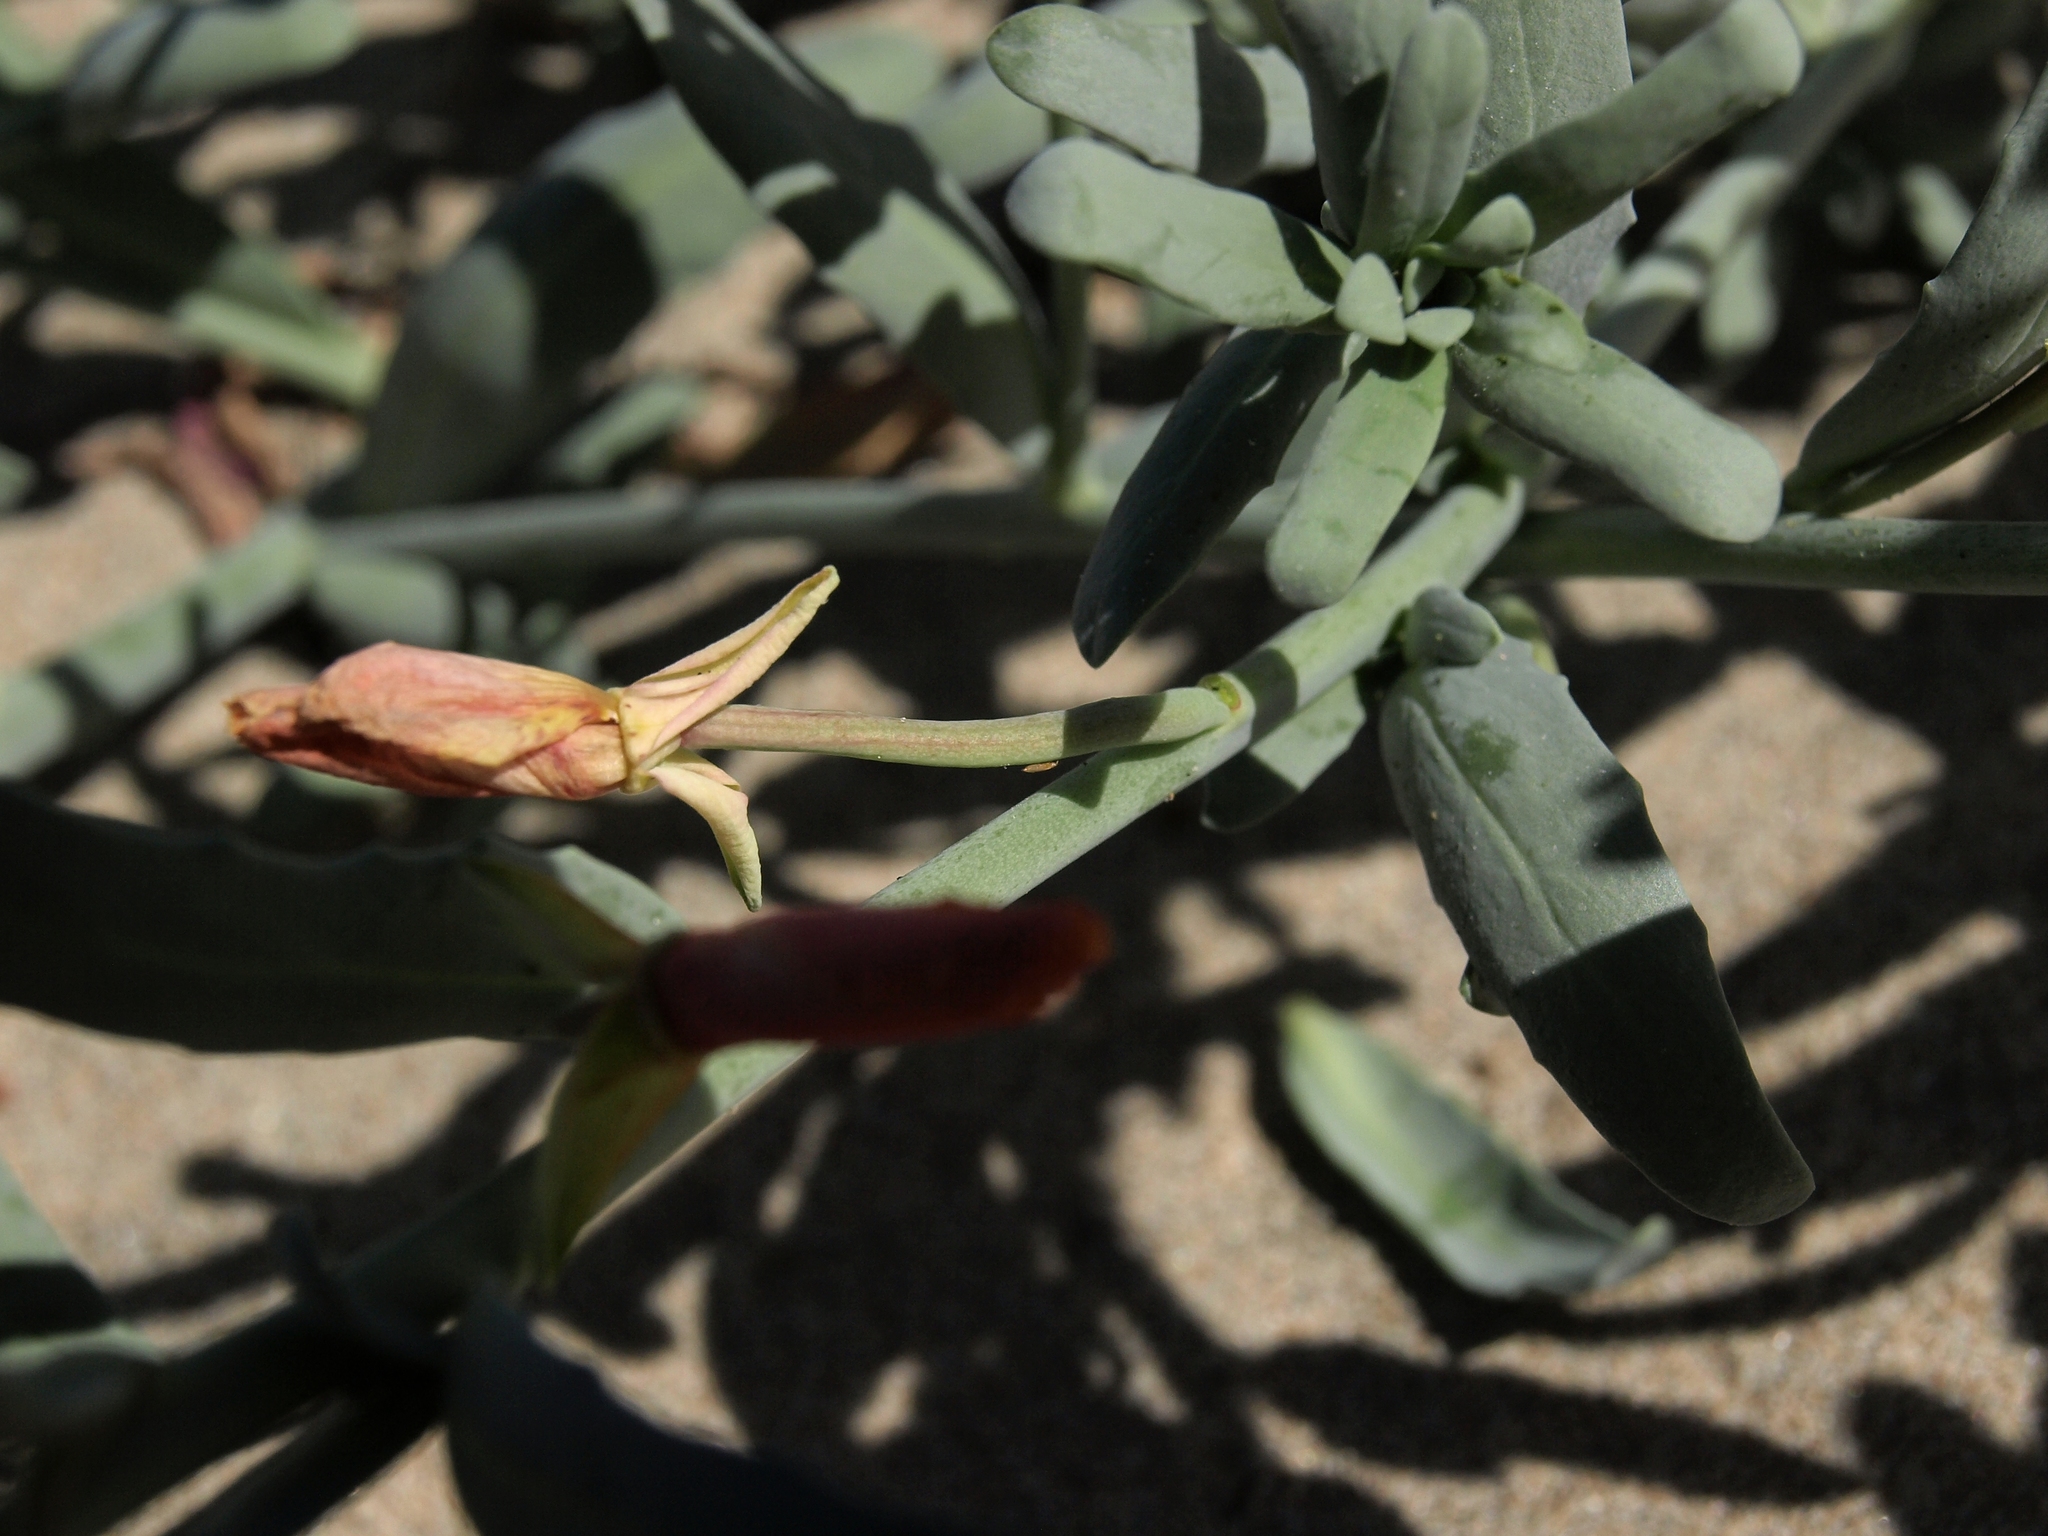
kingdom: Plantae
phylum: Tracheophyta
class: Magnoliopsida
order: Myrtales
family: Onagraceae
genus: Eulobus
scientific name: Eulobus crassifolius
